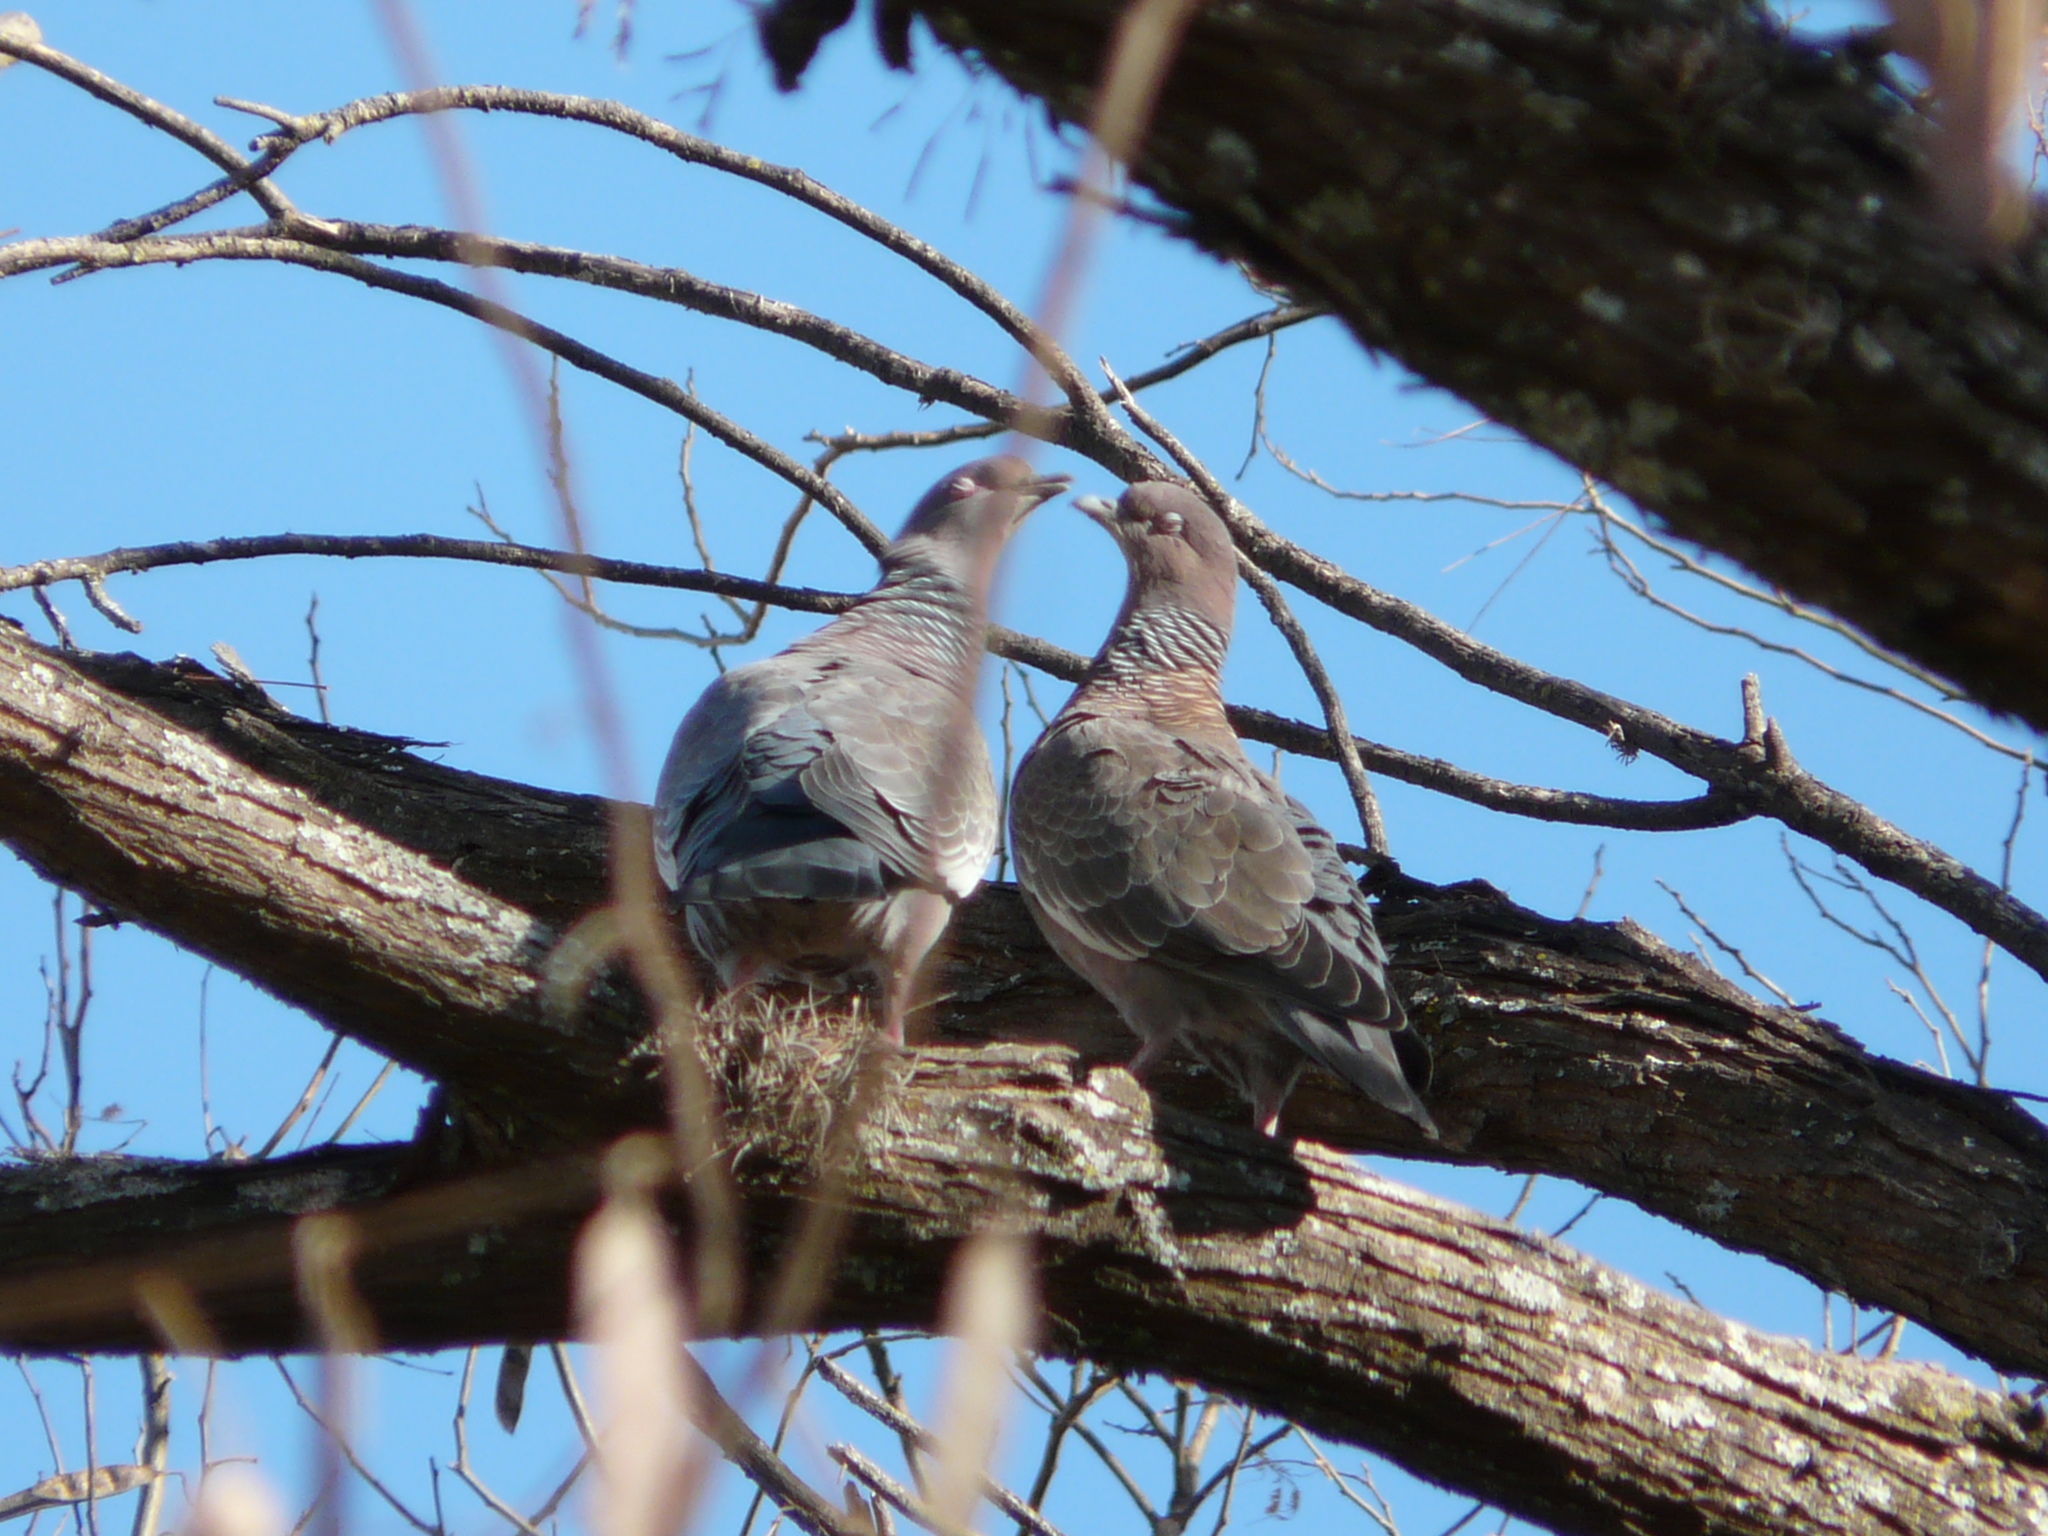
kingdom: Animalia
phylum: Chordata
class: Aves
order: Columbiformes
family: Columbidae
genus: Patagioenas
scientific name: Patagioenas picazuro
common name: Picazuro pigeon
